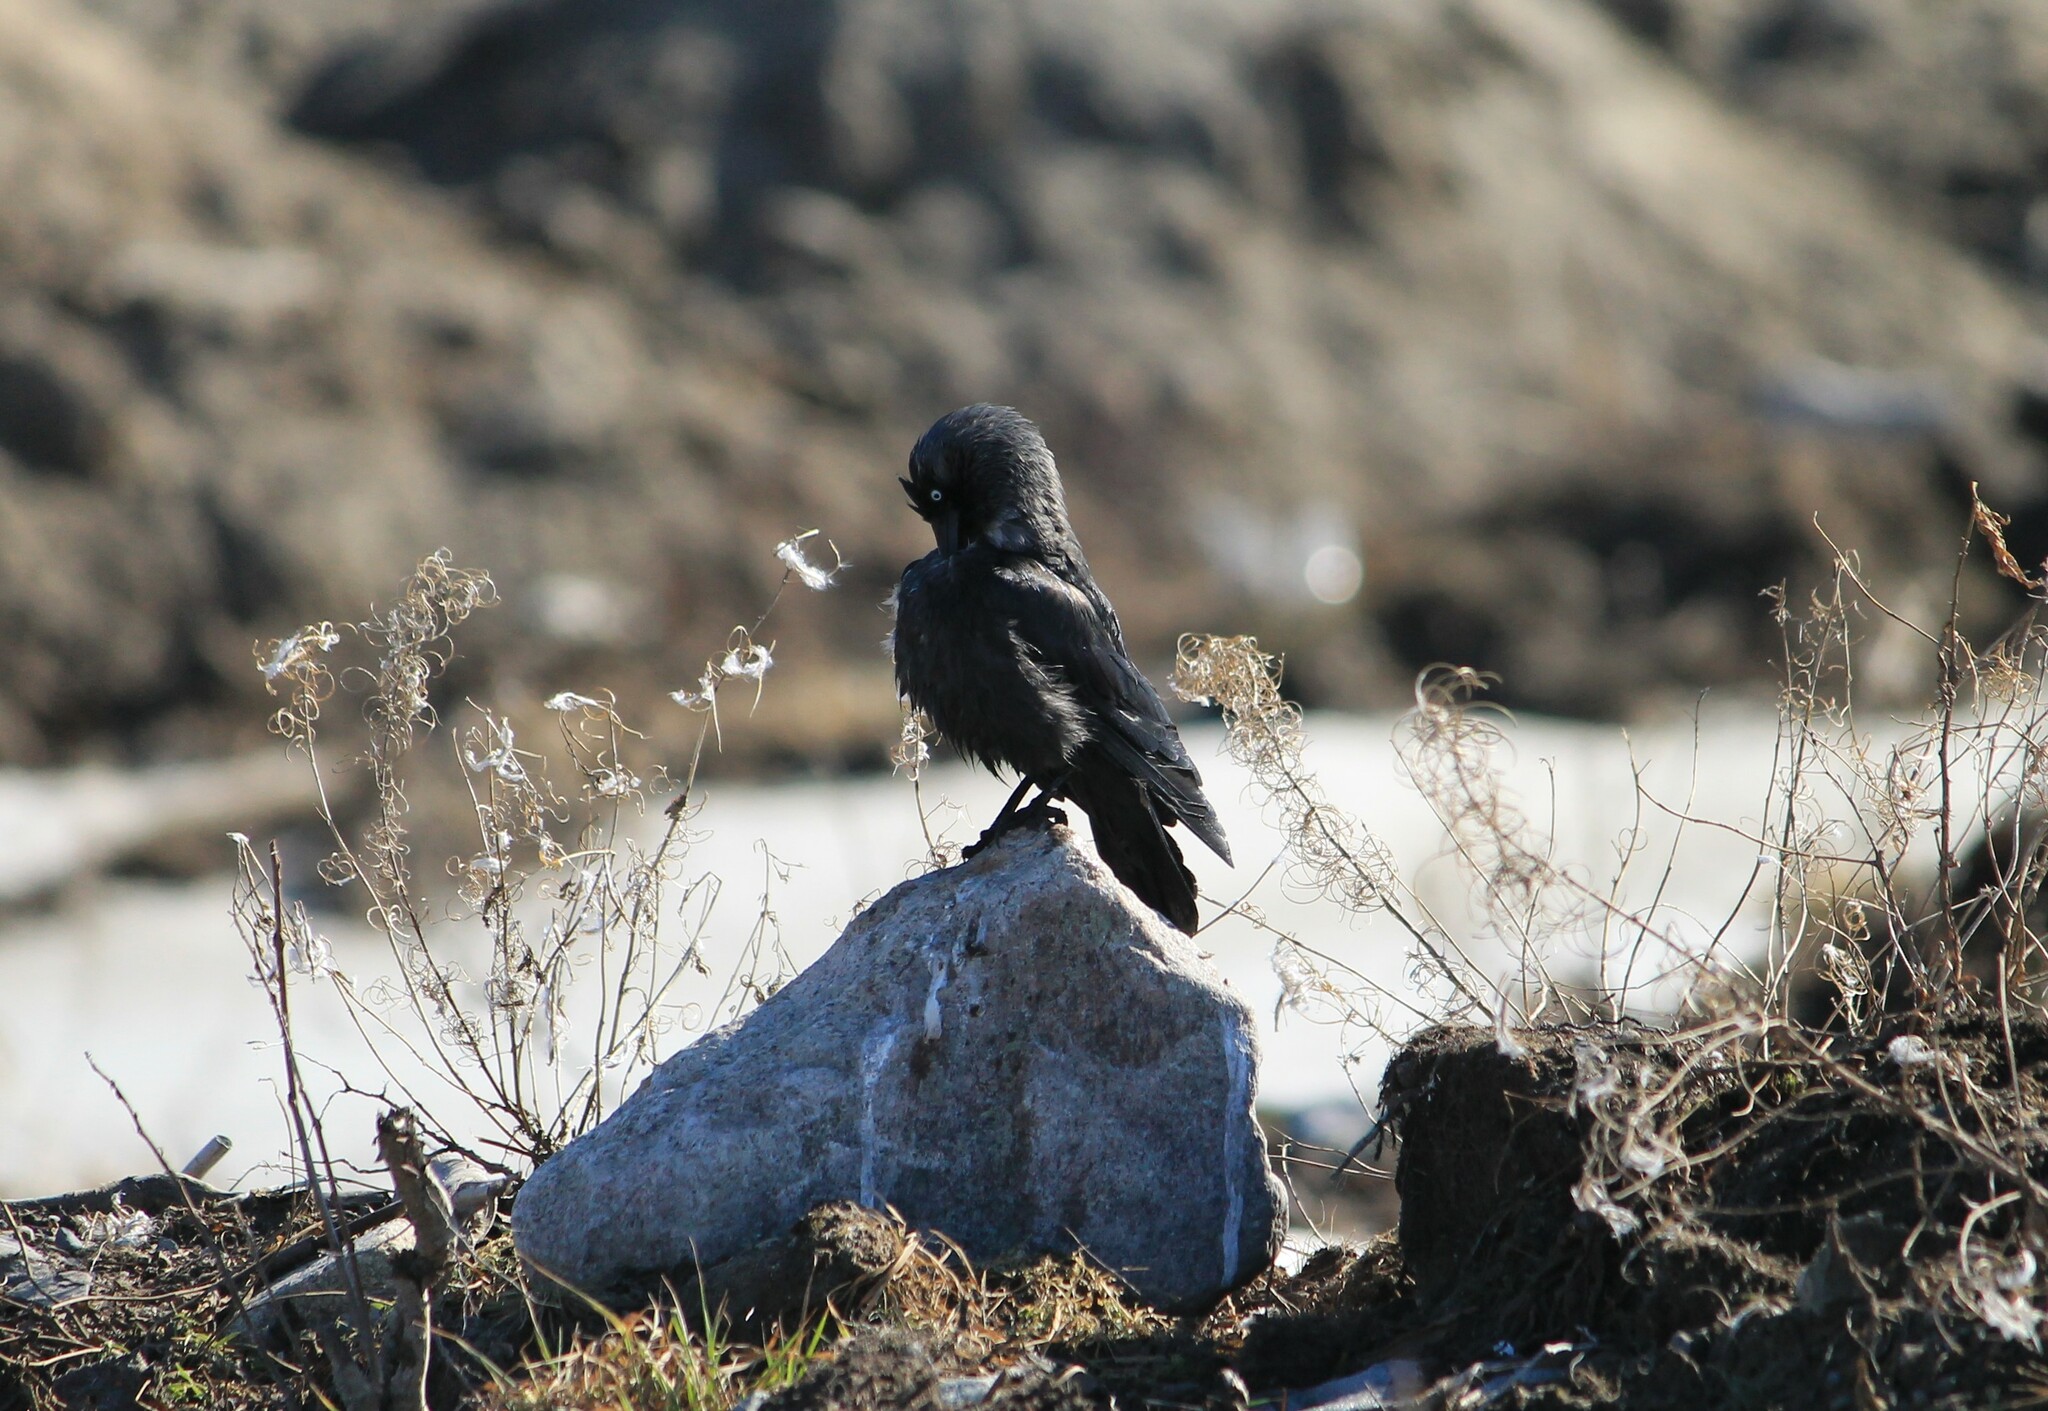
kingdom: Animalia
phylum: Chordata
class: Aves
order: Passeriformes
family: Corvidae
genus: Coloeus
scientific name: Coloeus monedula
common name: Western jackdaw
